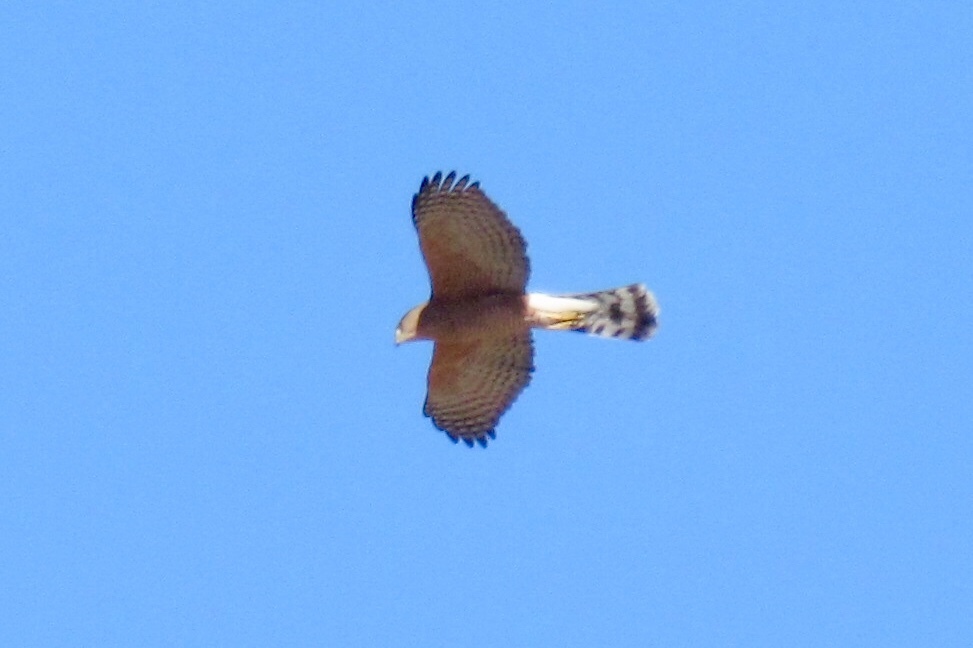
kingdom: Animalia
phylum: Chordata
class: Aves
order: Accipitriformes
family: Accipitridae
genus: Accipiter
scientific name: Accipiter cooperii
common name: Cooper's hawk
